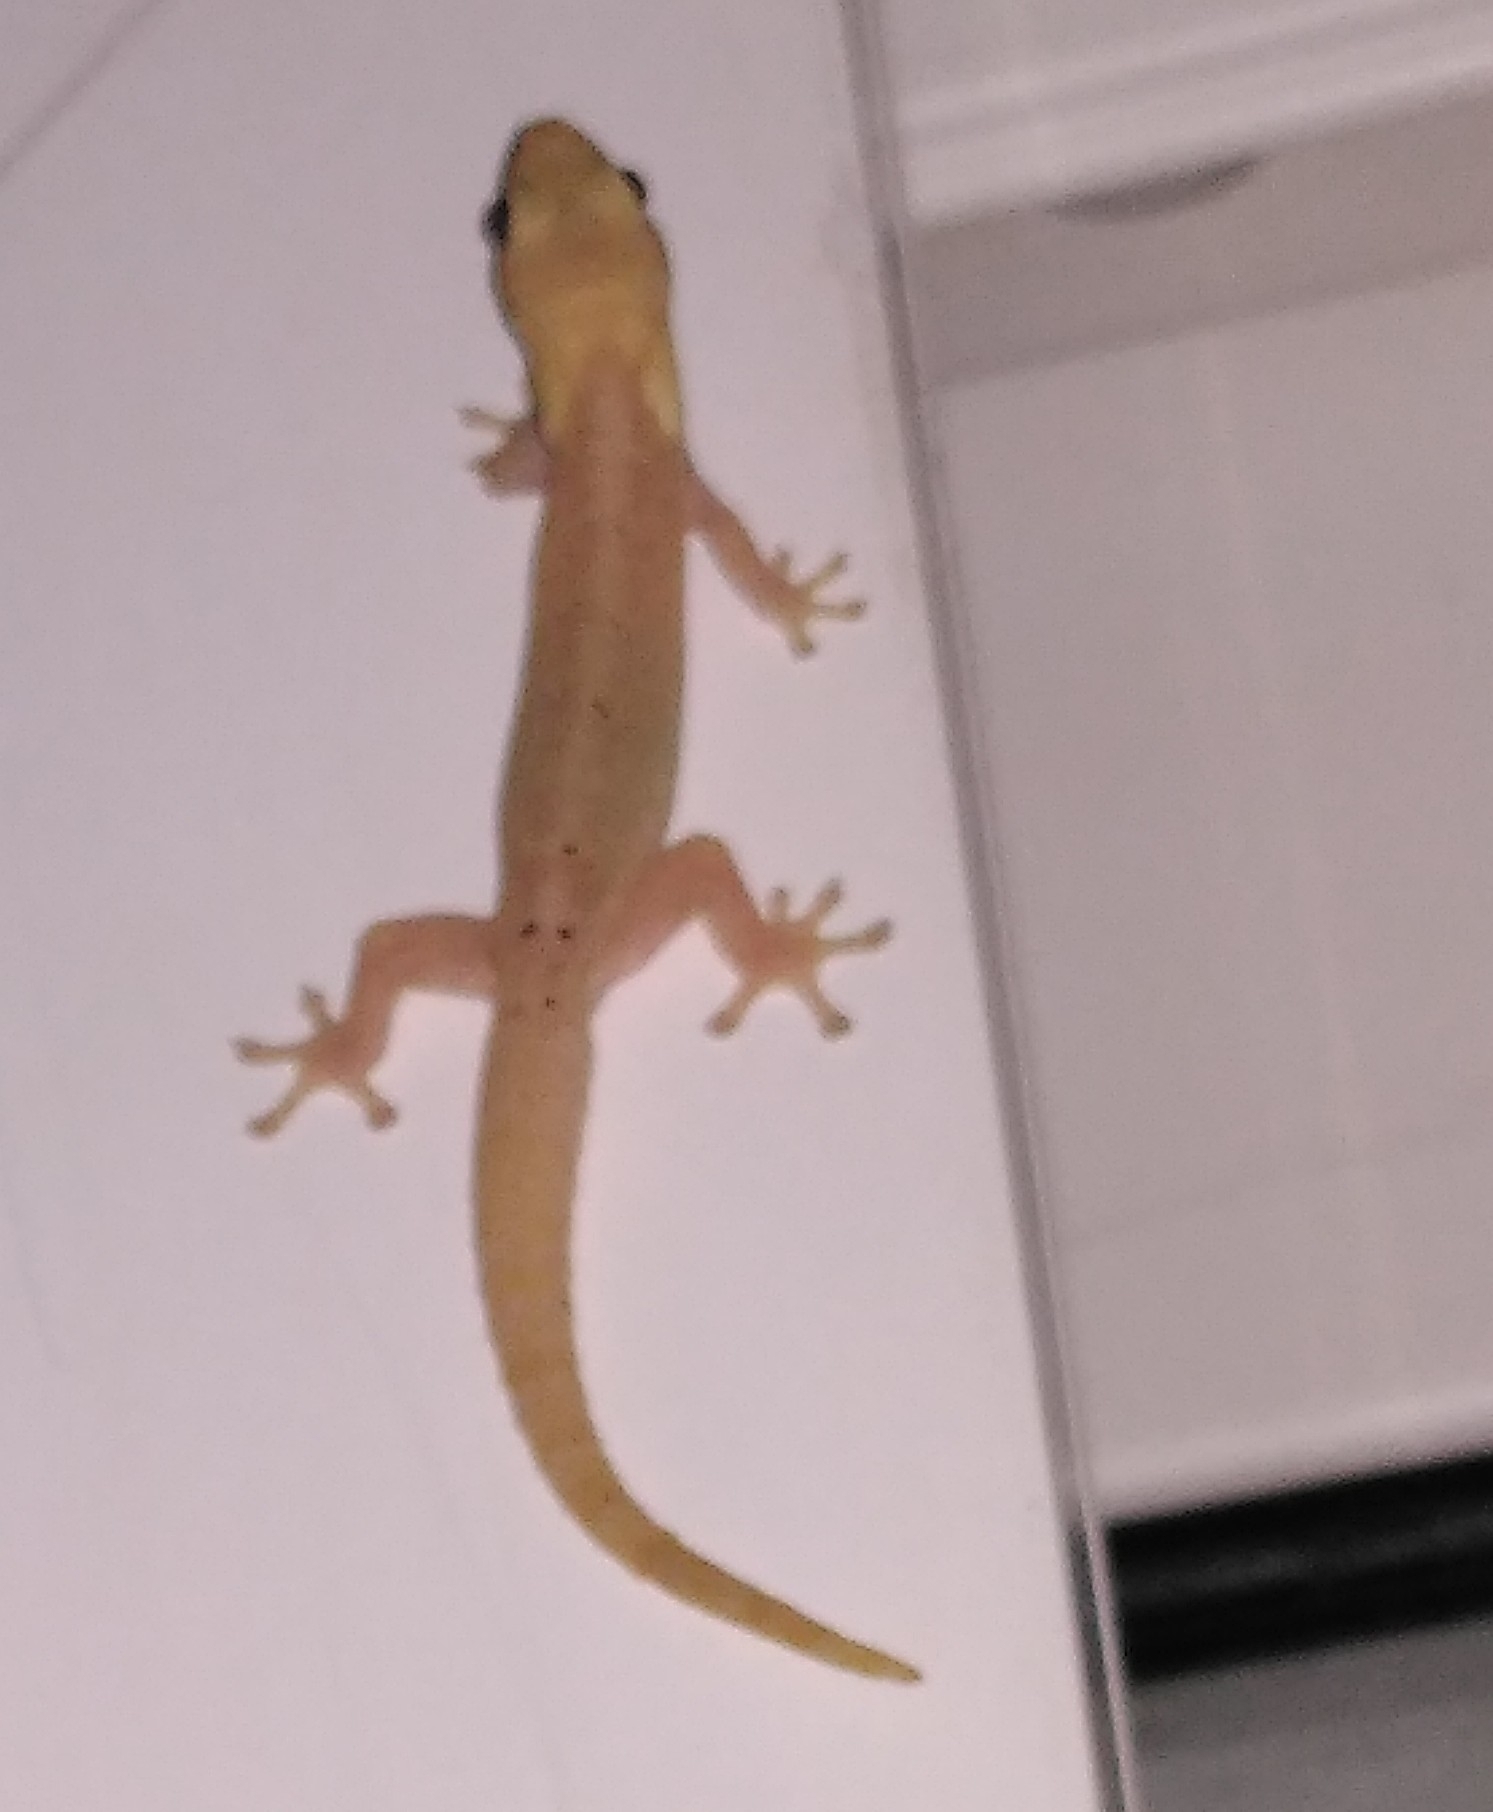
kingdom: Animalia
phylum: Chordata
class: Squamata
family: Gekkonidae
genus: Lepidodactylus
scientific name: Lepidodactylus lugubris
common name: Mourning gecko
